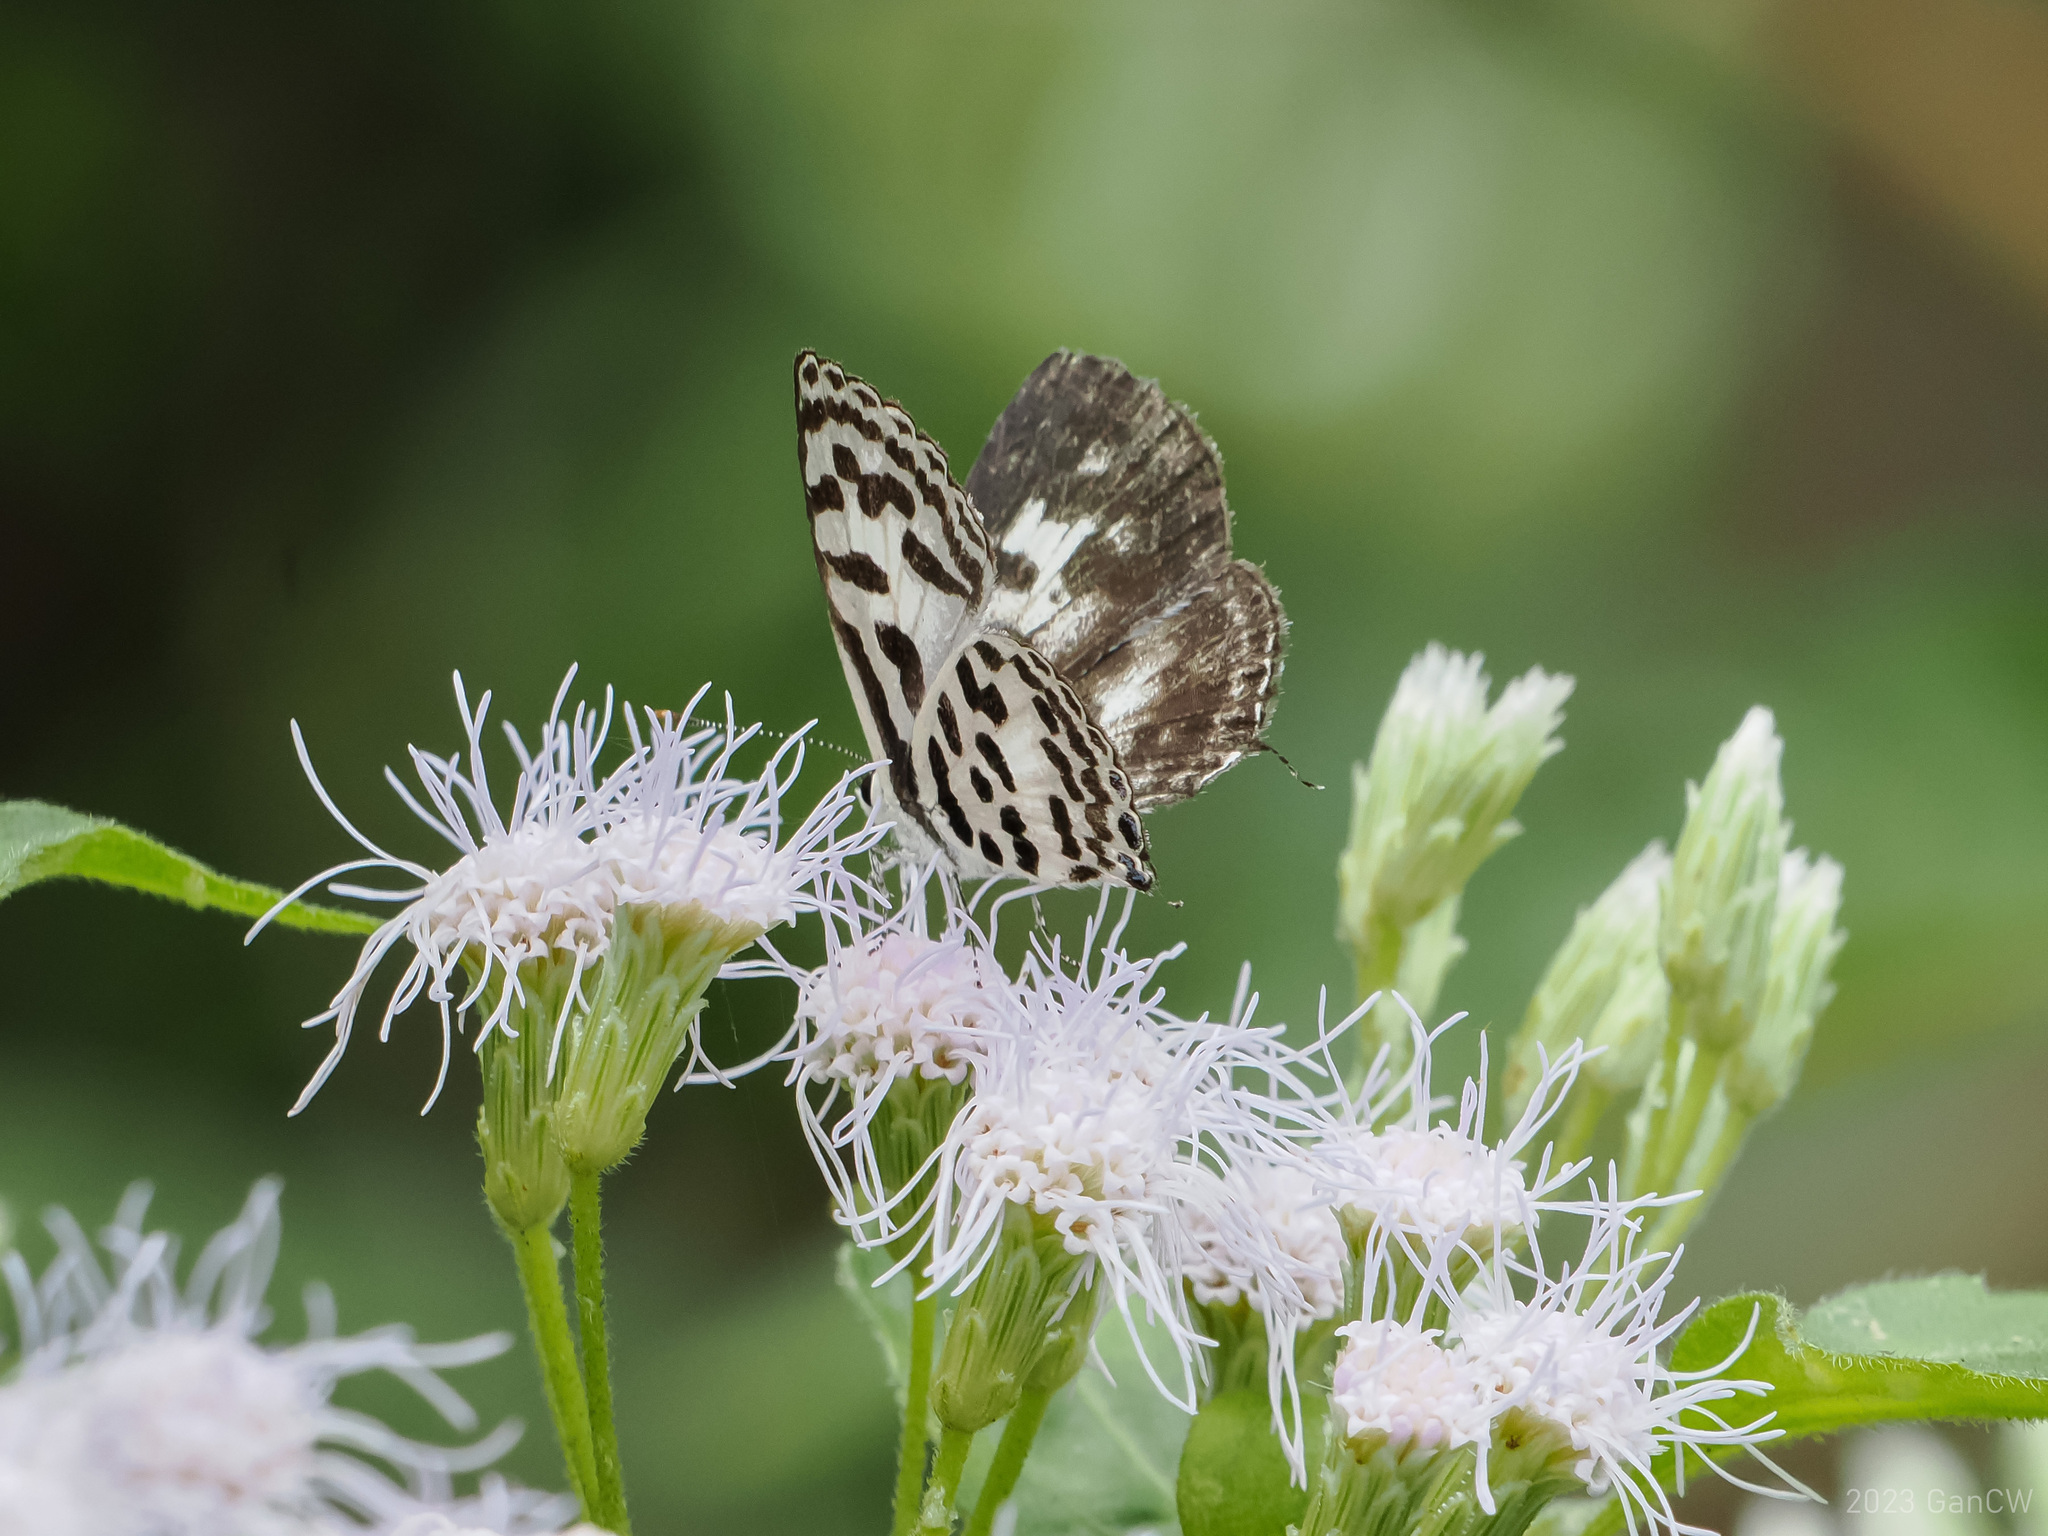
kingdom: Animalia
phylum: Arthropoda
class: Insecta
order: Lepidoptera
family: Lycaenidae
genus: Castalius
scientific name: Castalius rosimon
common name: Common pierrot
